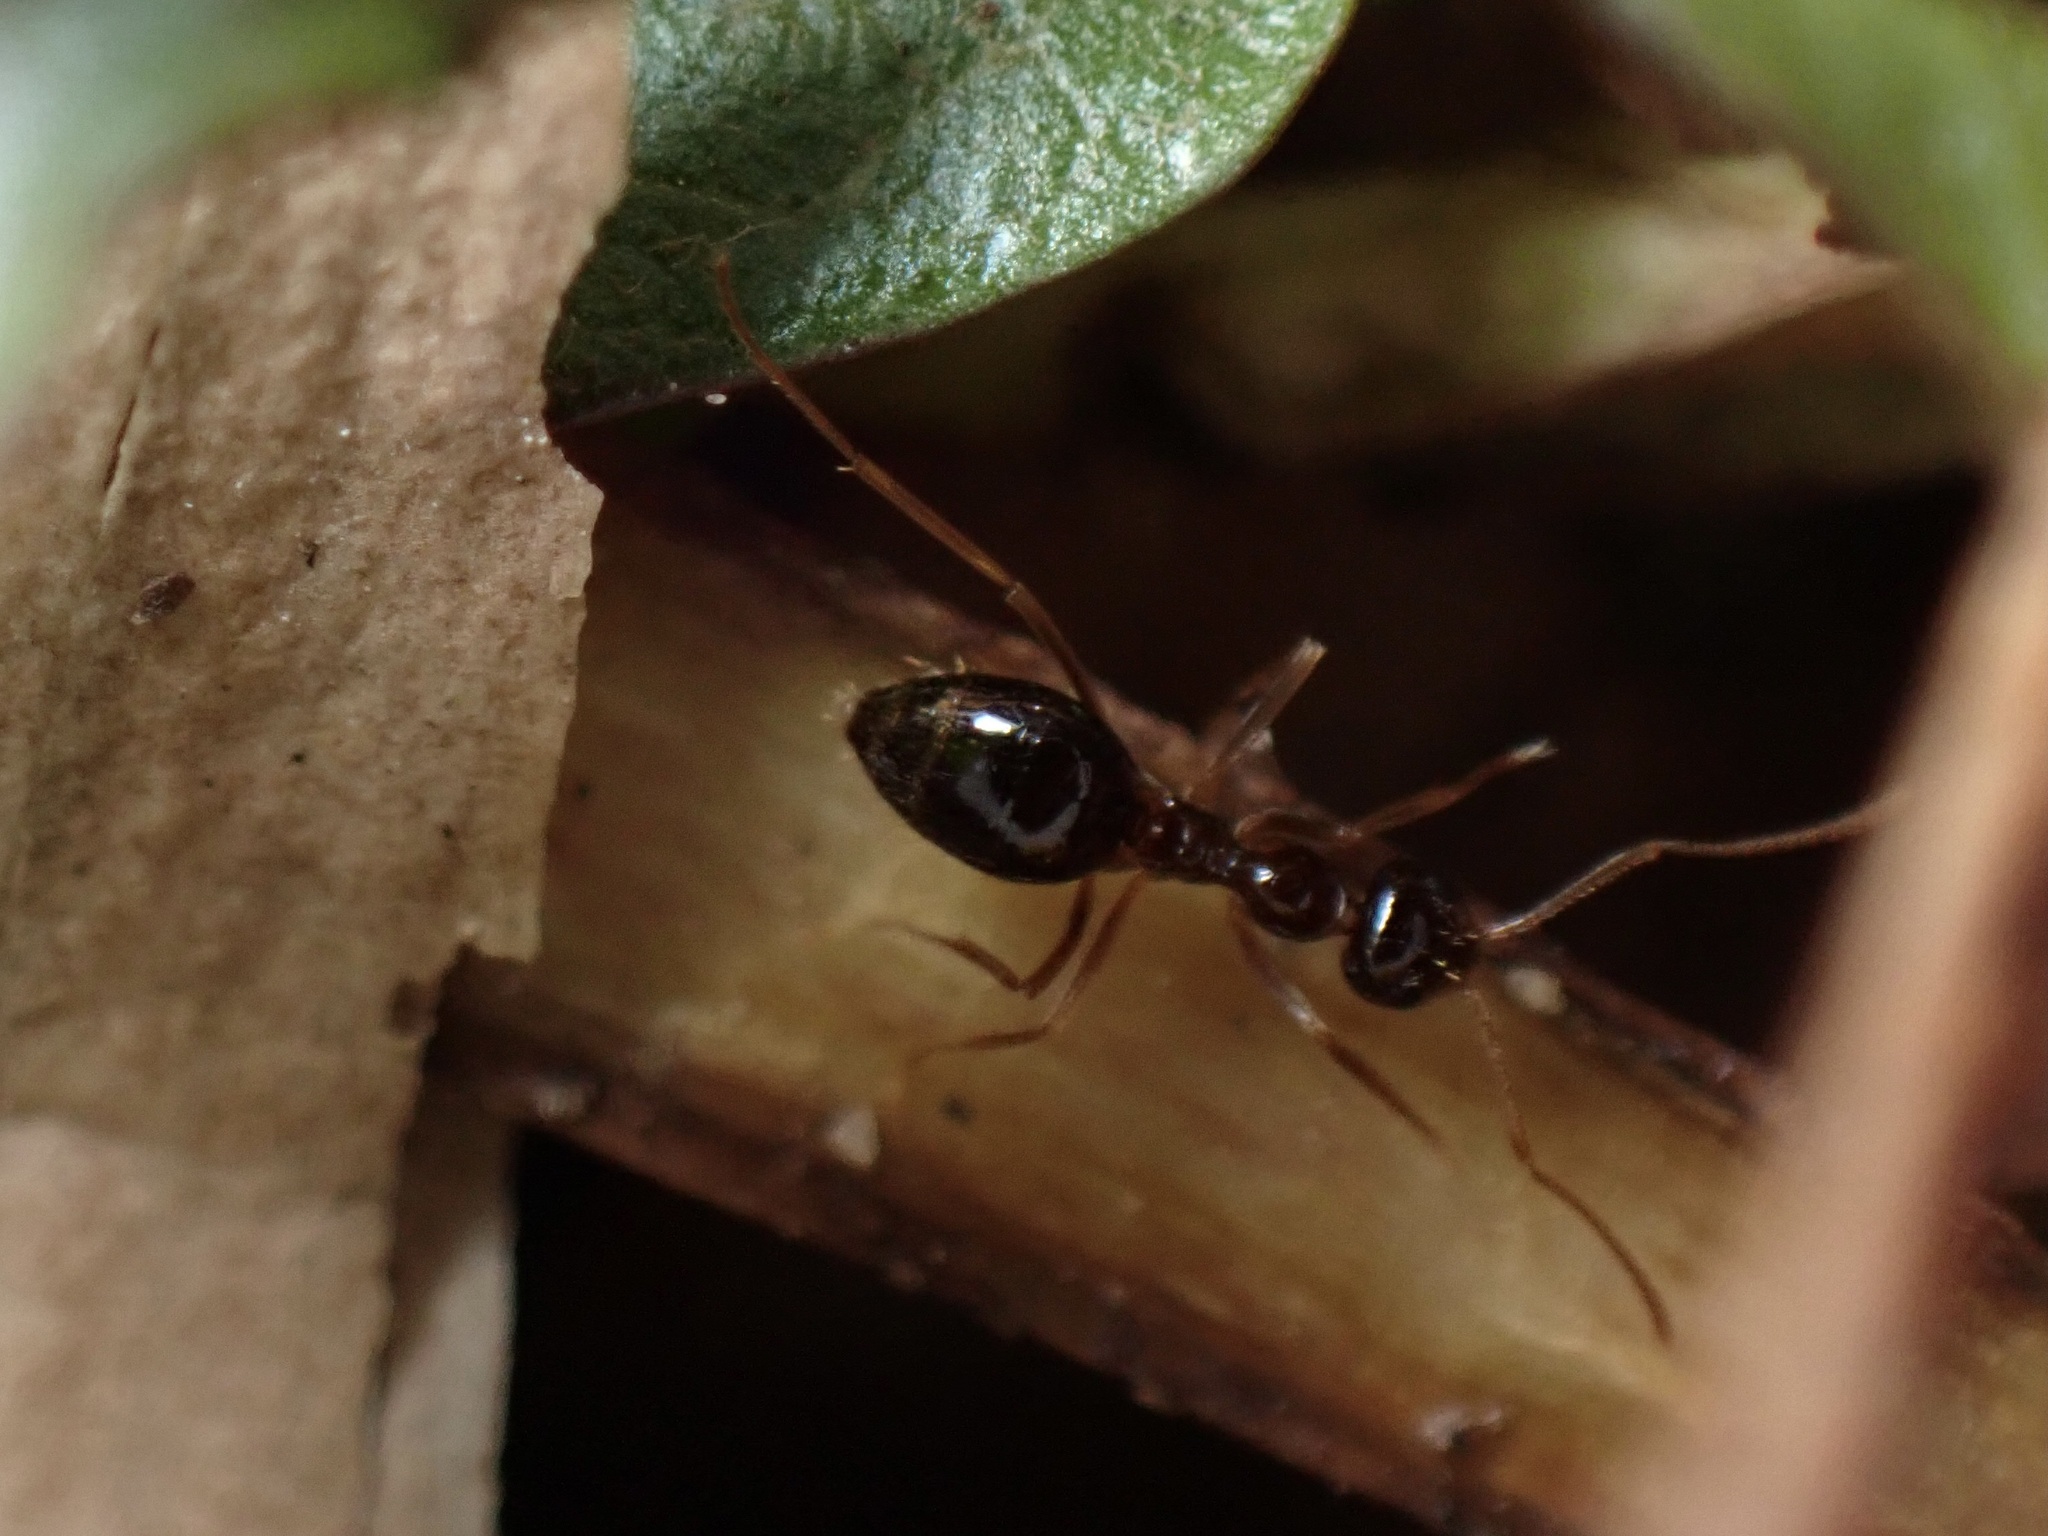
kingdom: Animalia
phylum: Arthropoda
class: Insecta
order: Hymenoptera
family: Formicidae
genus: Prenolepis
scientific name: Prenolepis imparis
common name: Small honey ant
